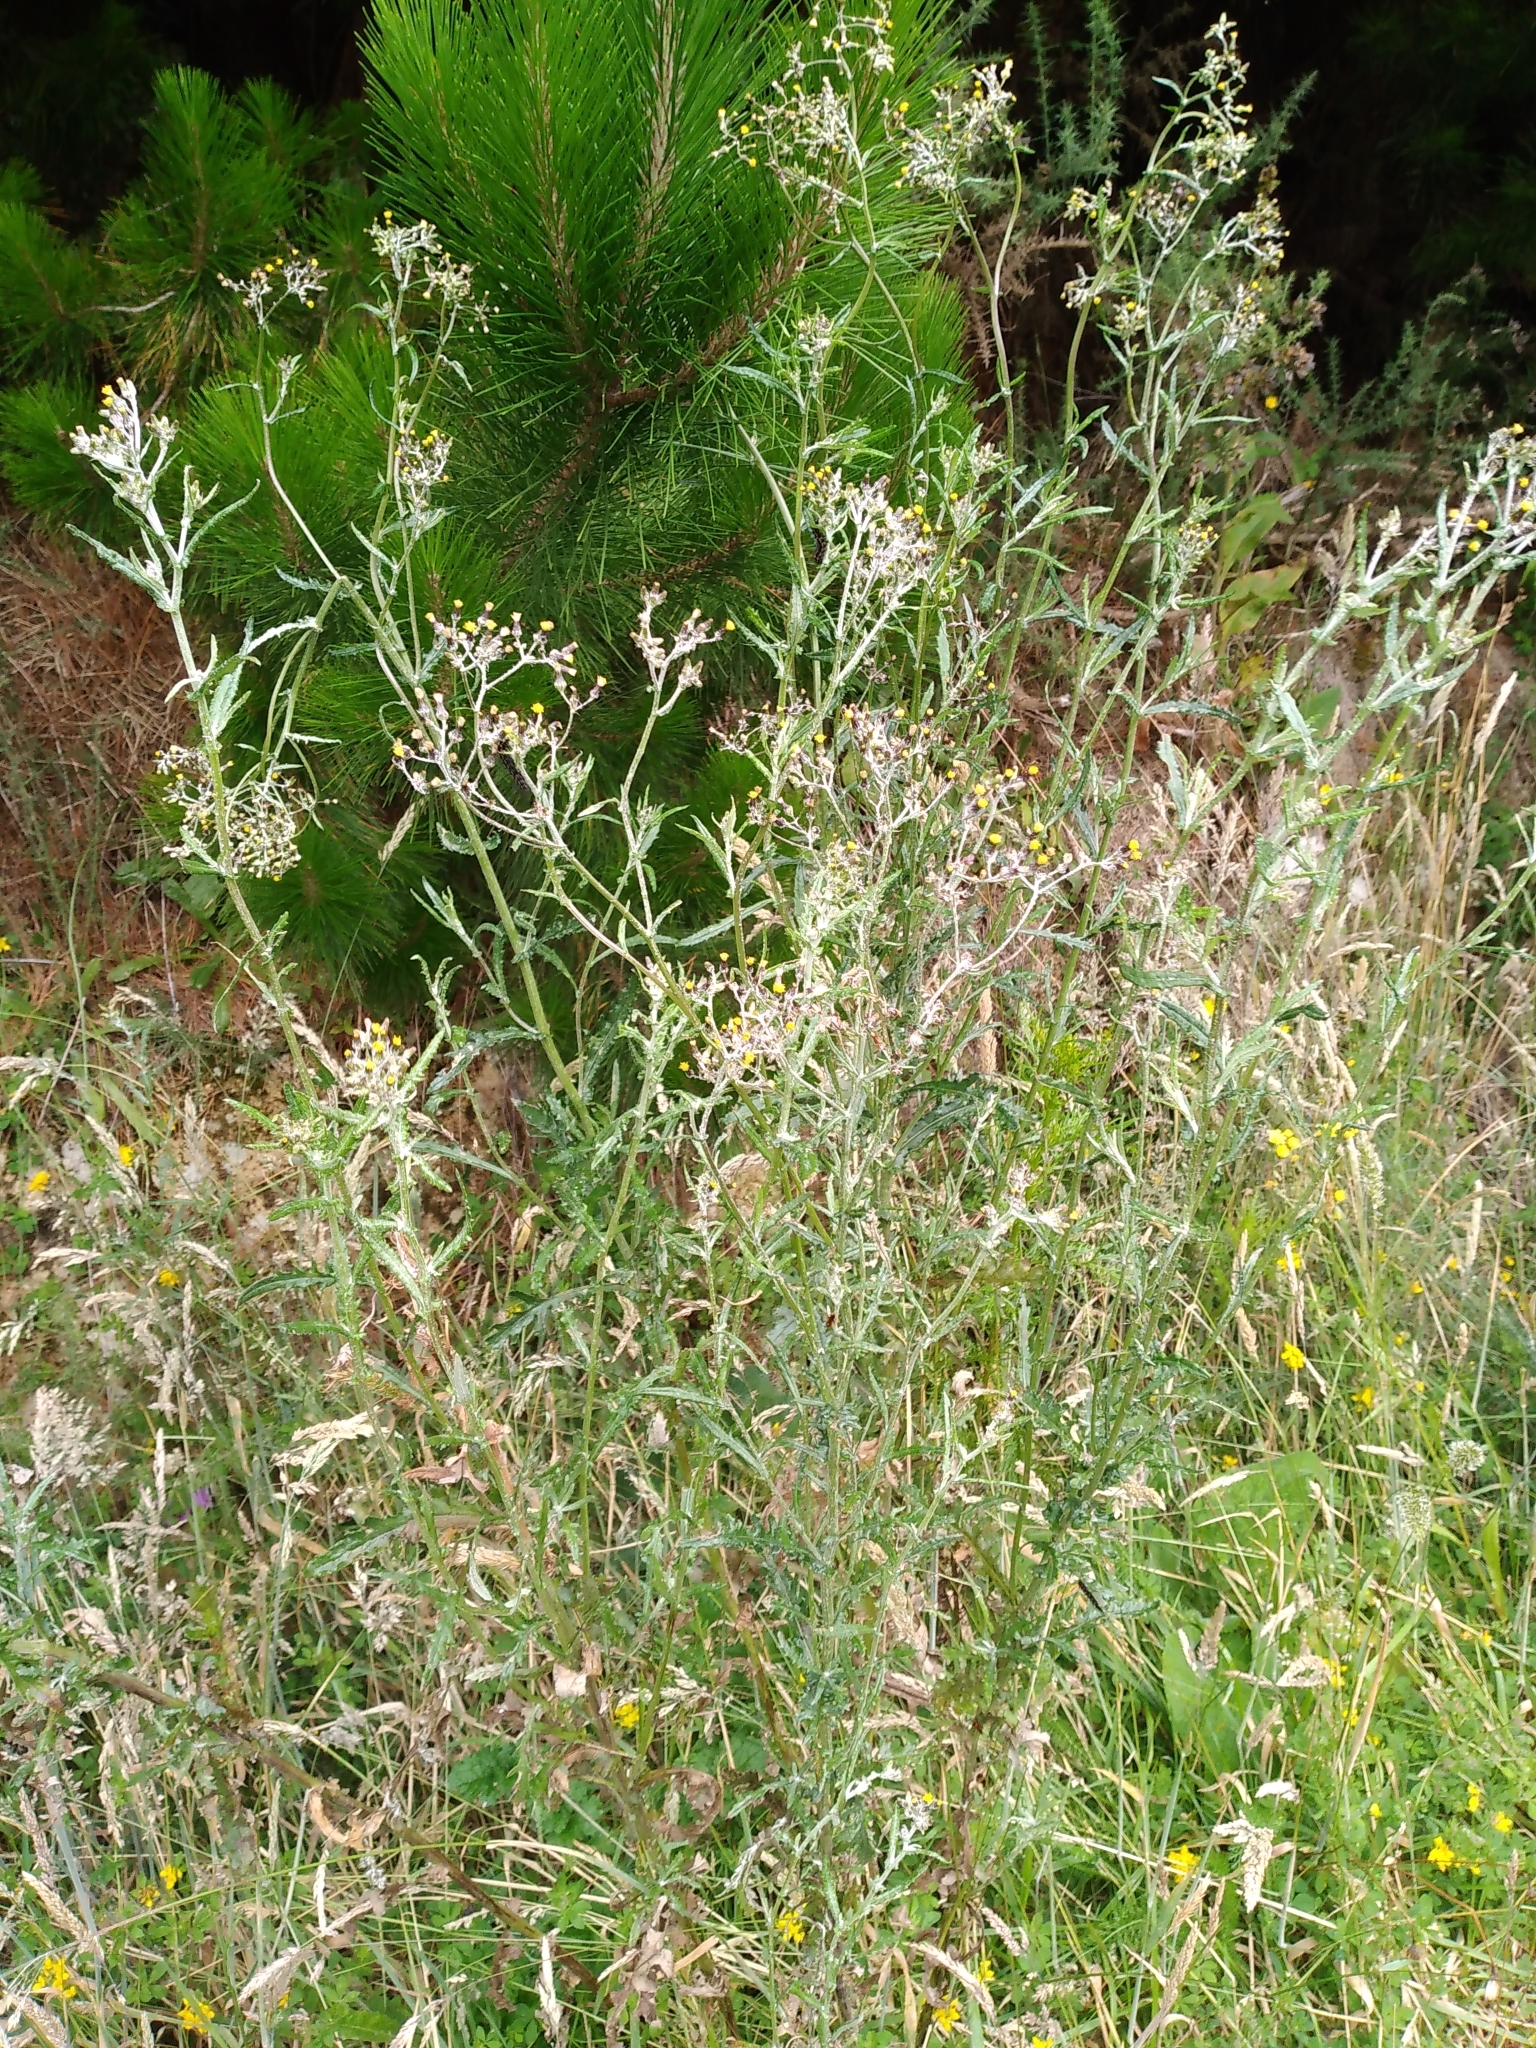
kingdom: Plantae
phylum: Tracheophyta
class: Magnoliopsida
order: Asterales
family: Asteraceae
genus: Senecio
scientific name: Senecio glomeratus
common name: Cutleaf burnweed
